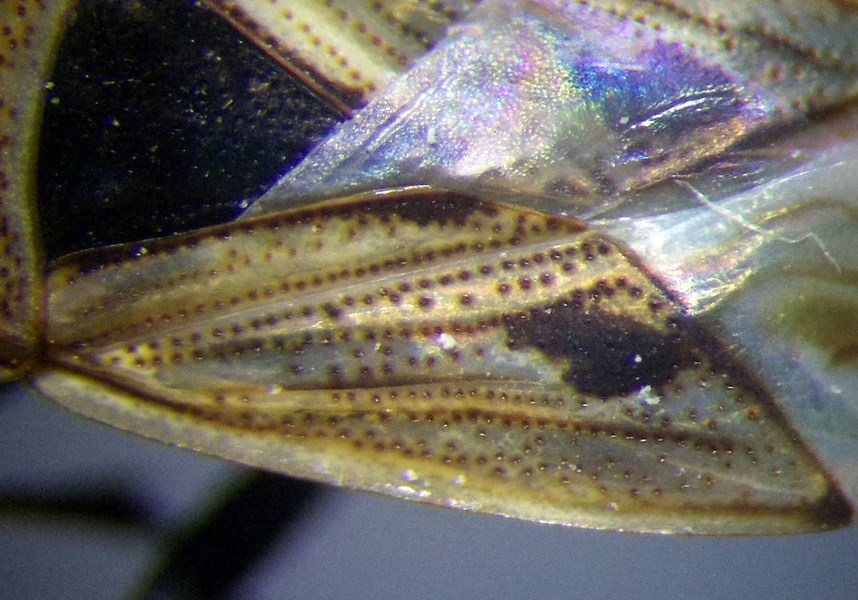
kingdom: Animalia
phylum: Arthropoda
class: Insecta
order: Hemiptera
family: Rhyparochromidae
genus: Xanthochilus
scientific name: Xanthochilus quadratus
